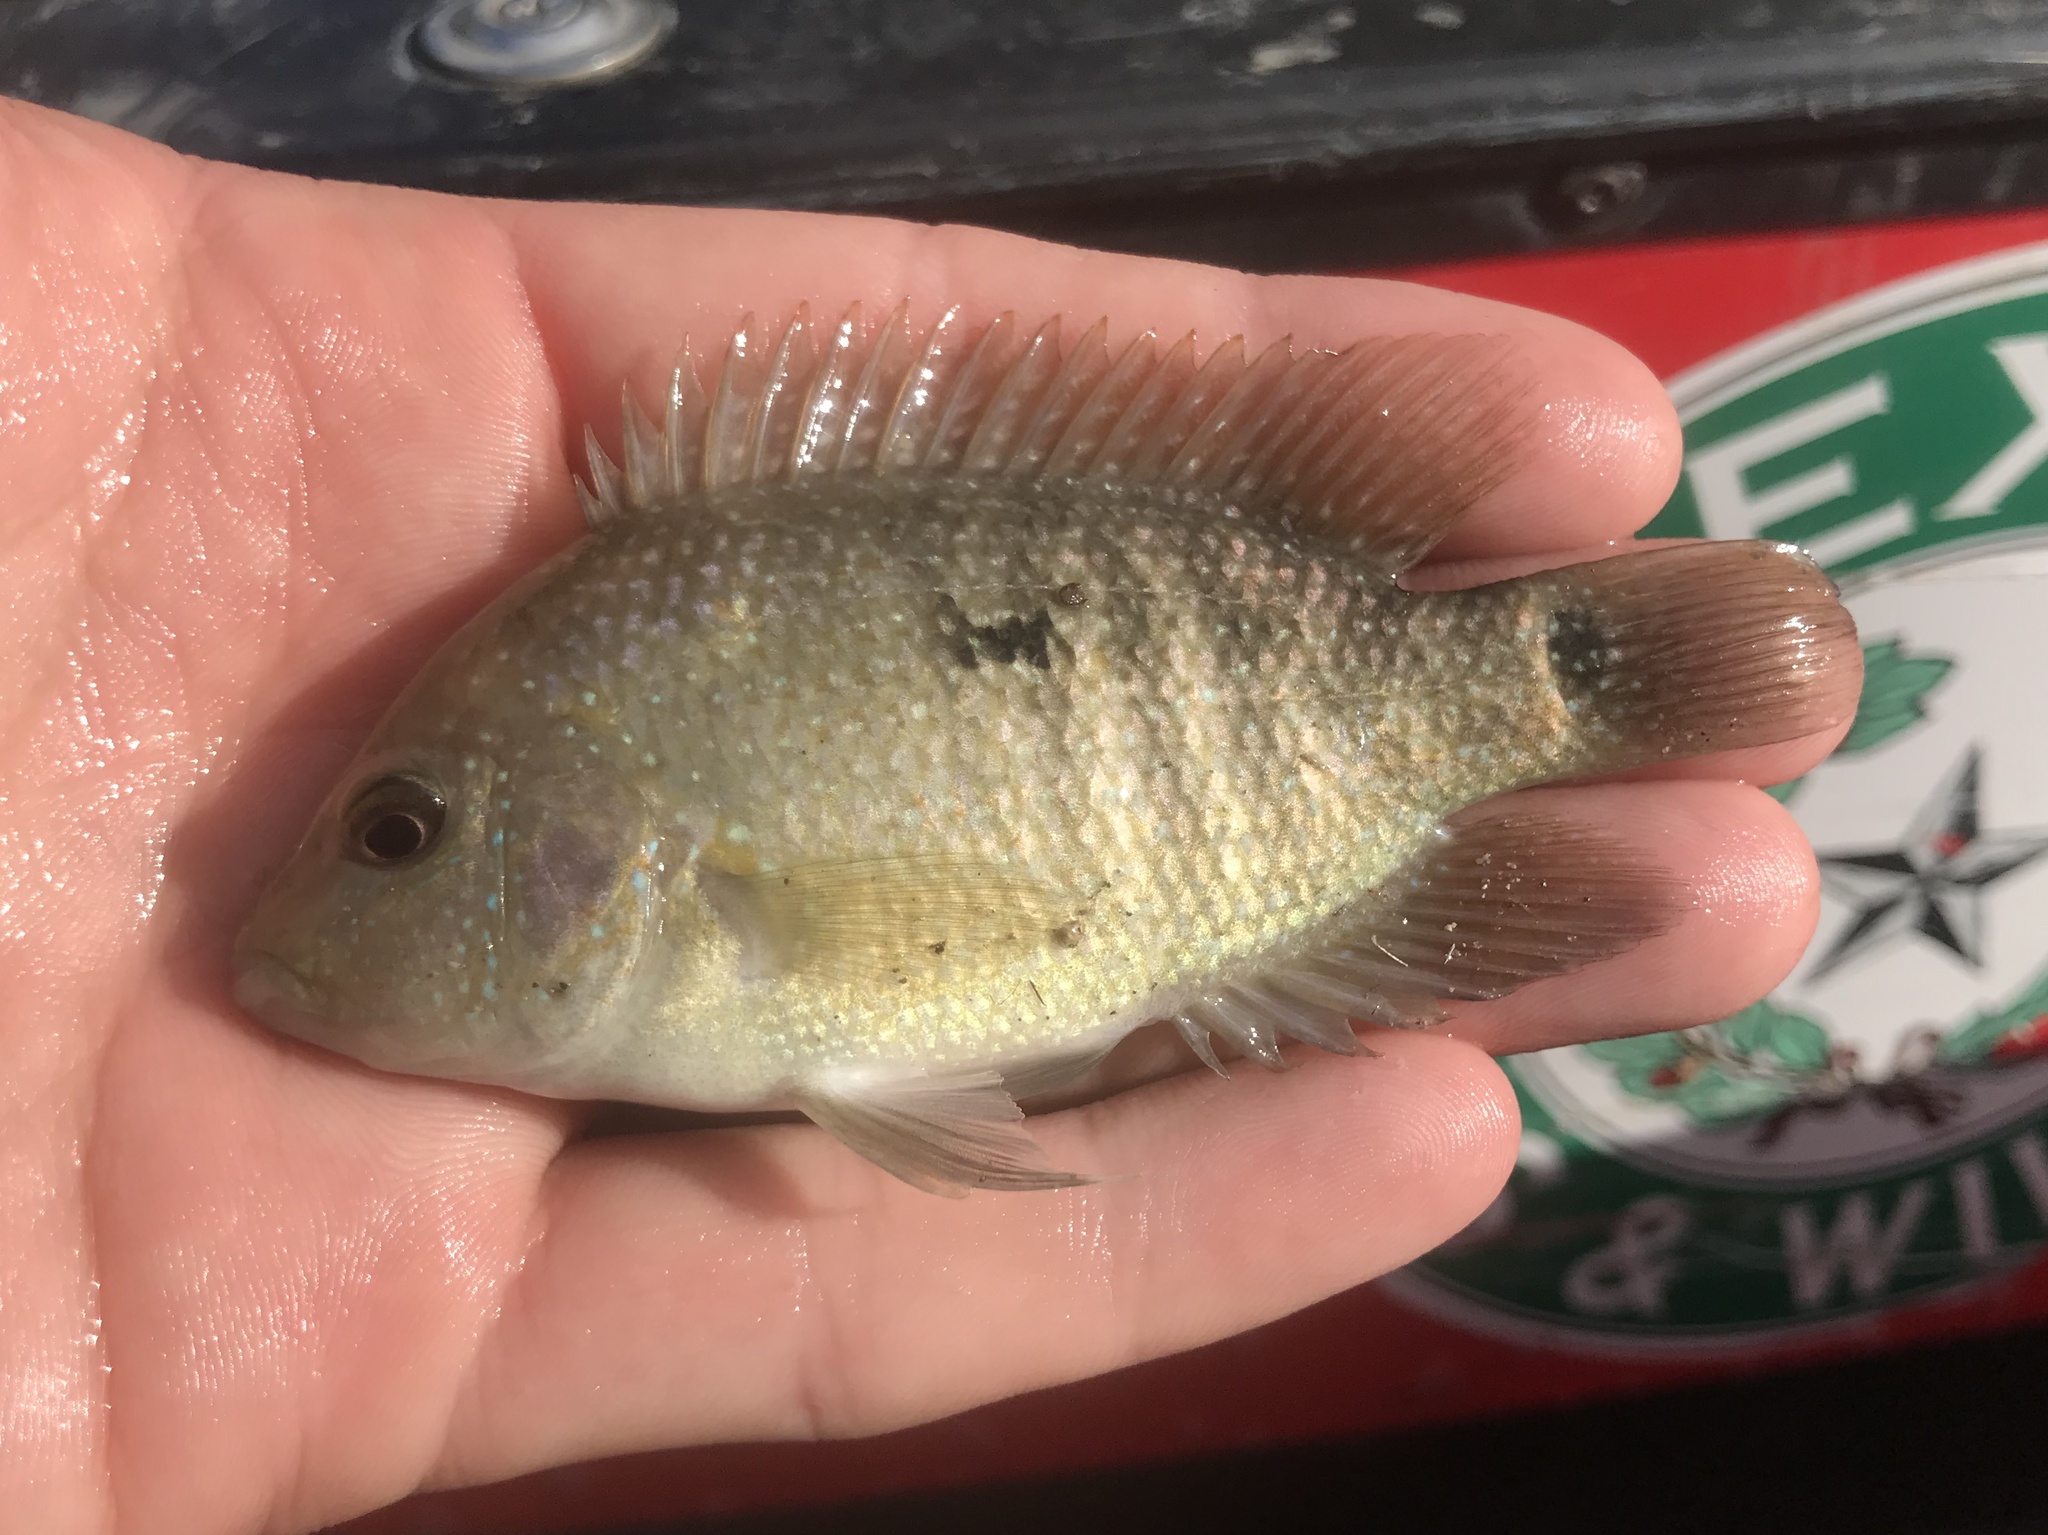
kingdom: Animalia
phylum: Chordata
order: Perciformes
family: Cichlidae
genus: Herichthys
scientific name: Herichthys cyanoguttatus
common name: Rio grande cichlid
